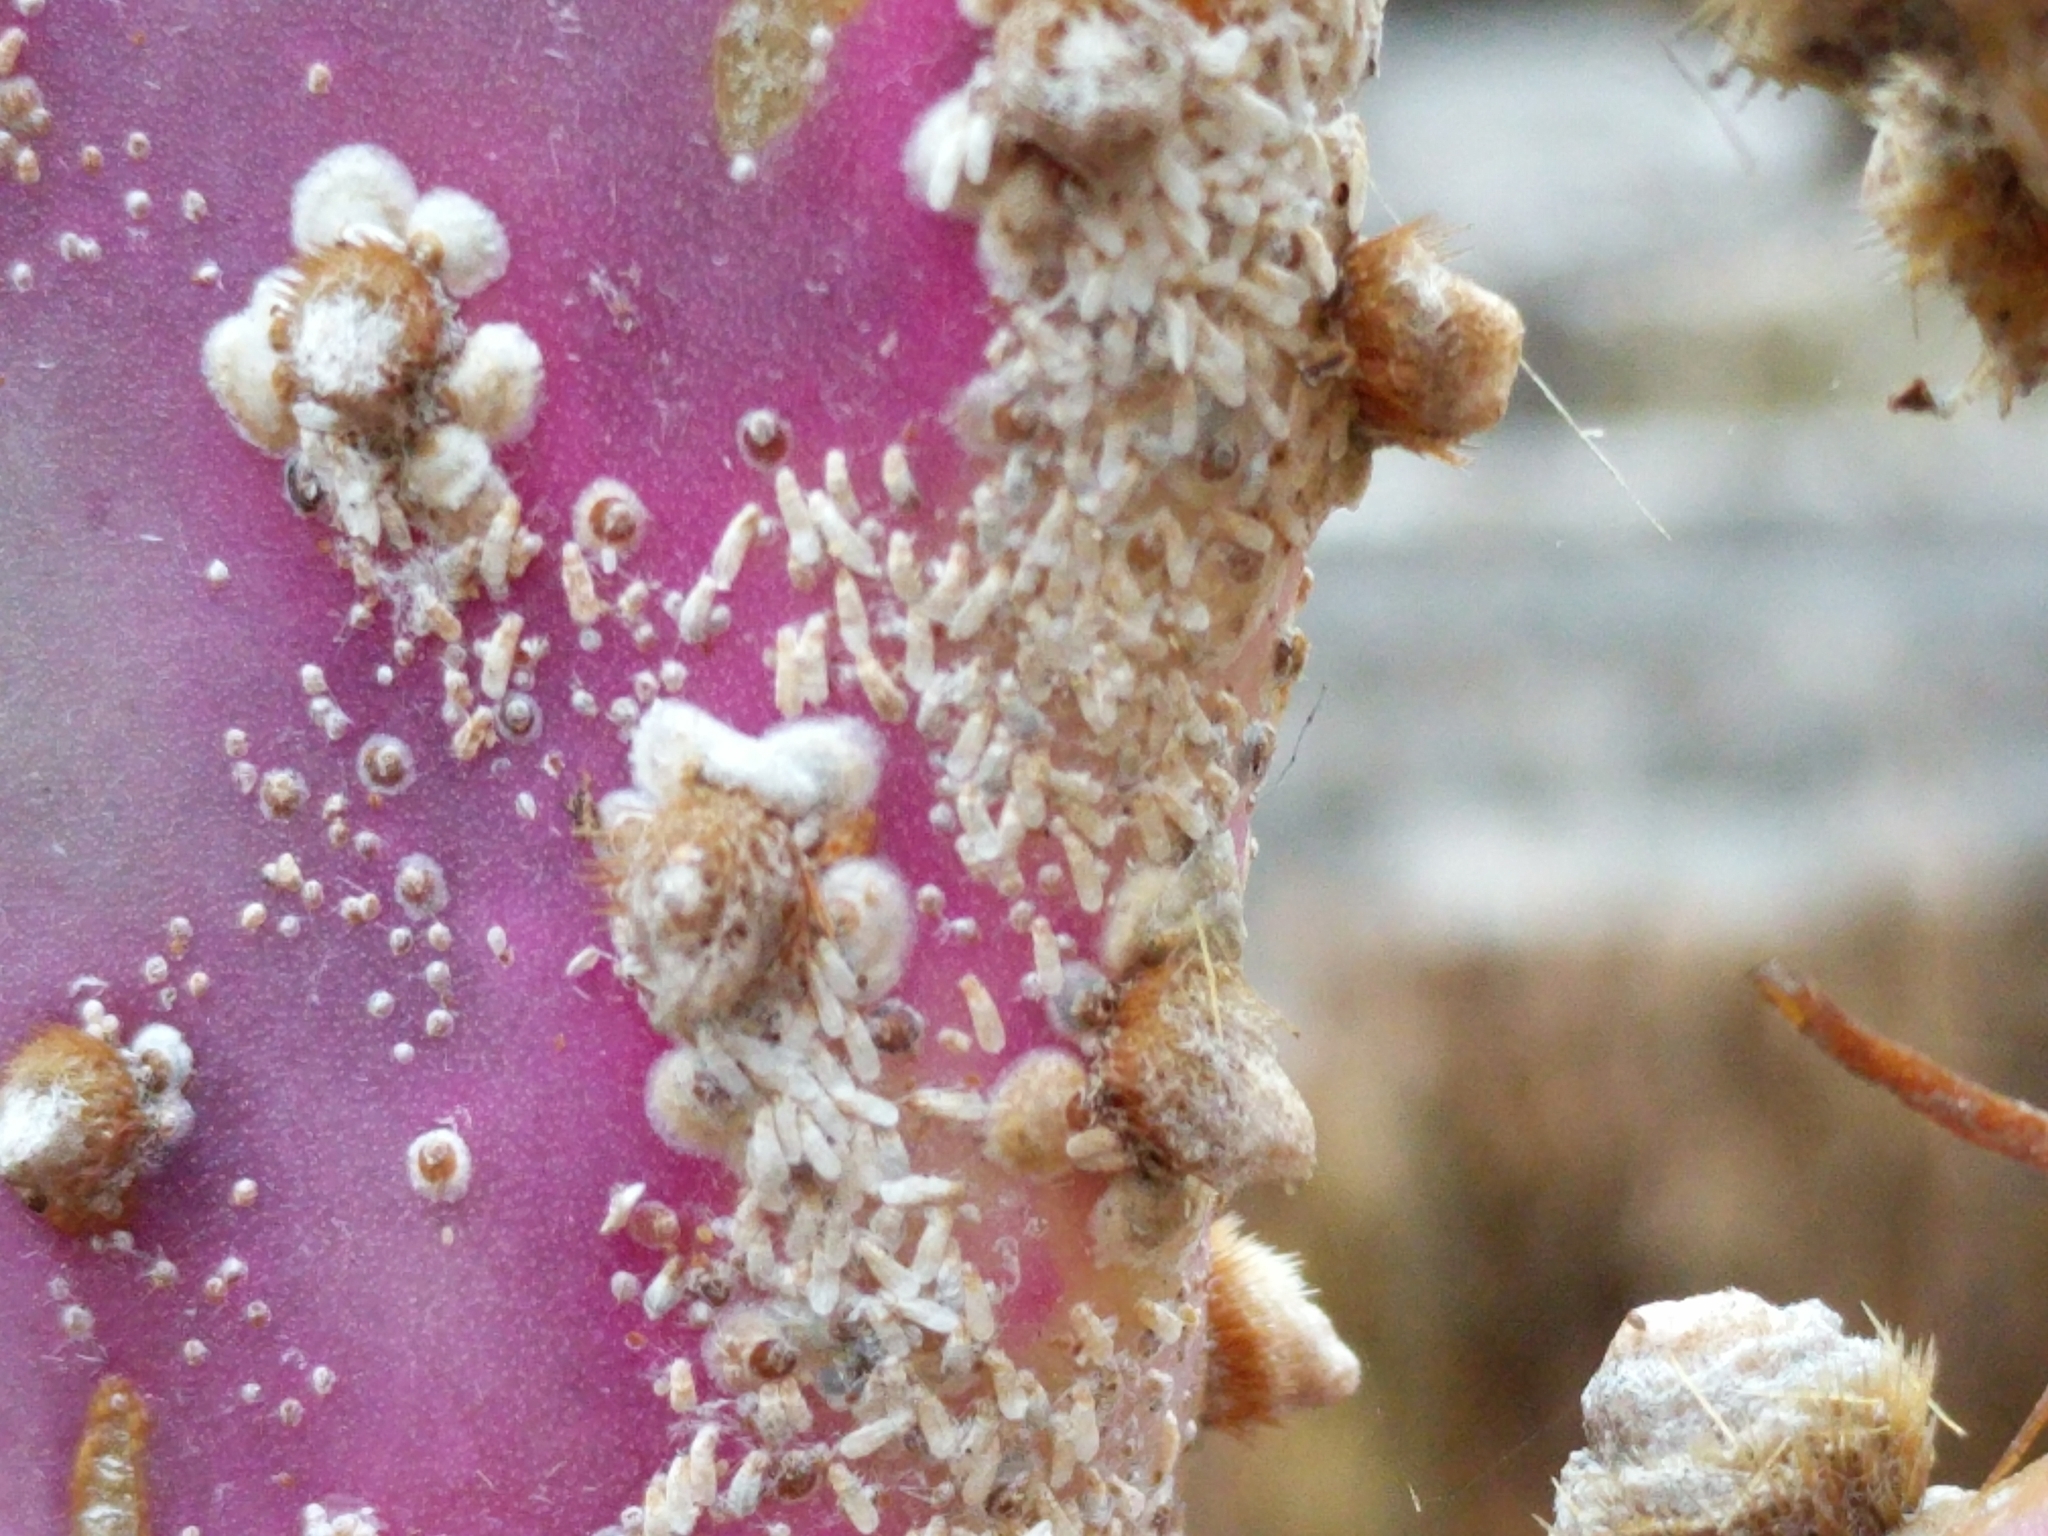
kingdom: Animalia
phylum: Arthropoda
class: Insecta
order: Hemiptera
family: Diaspididae
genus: Diaspis
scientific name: Diaspis echinocacti
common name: Cactus scale
